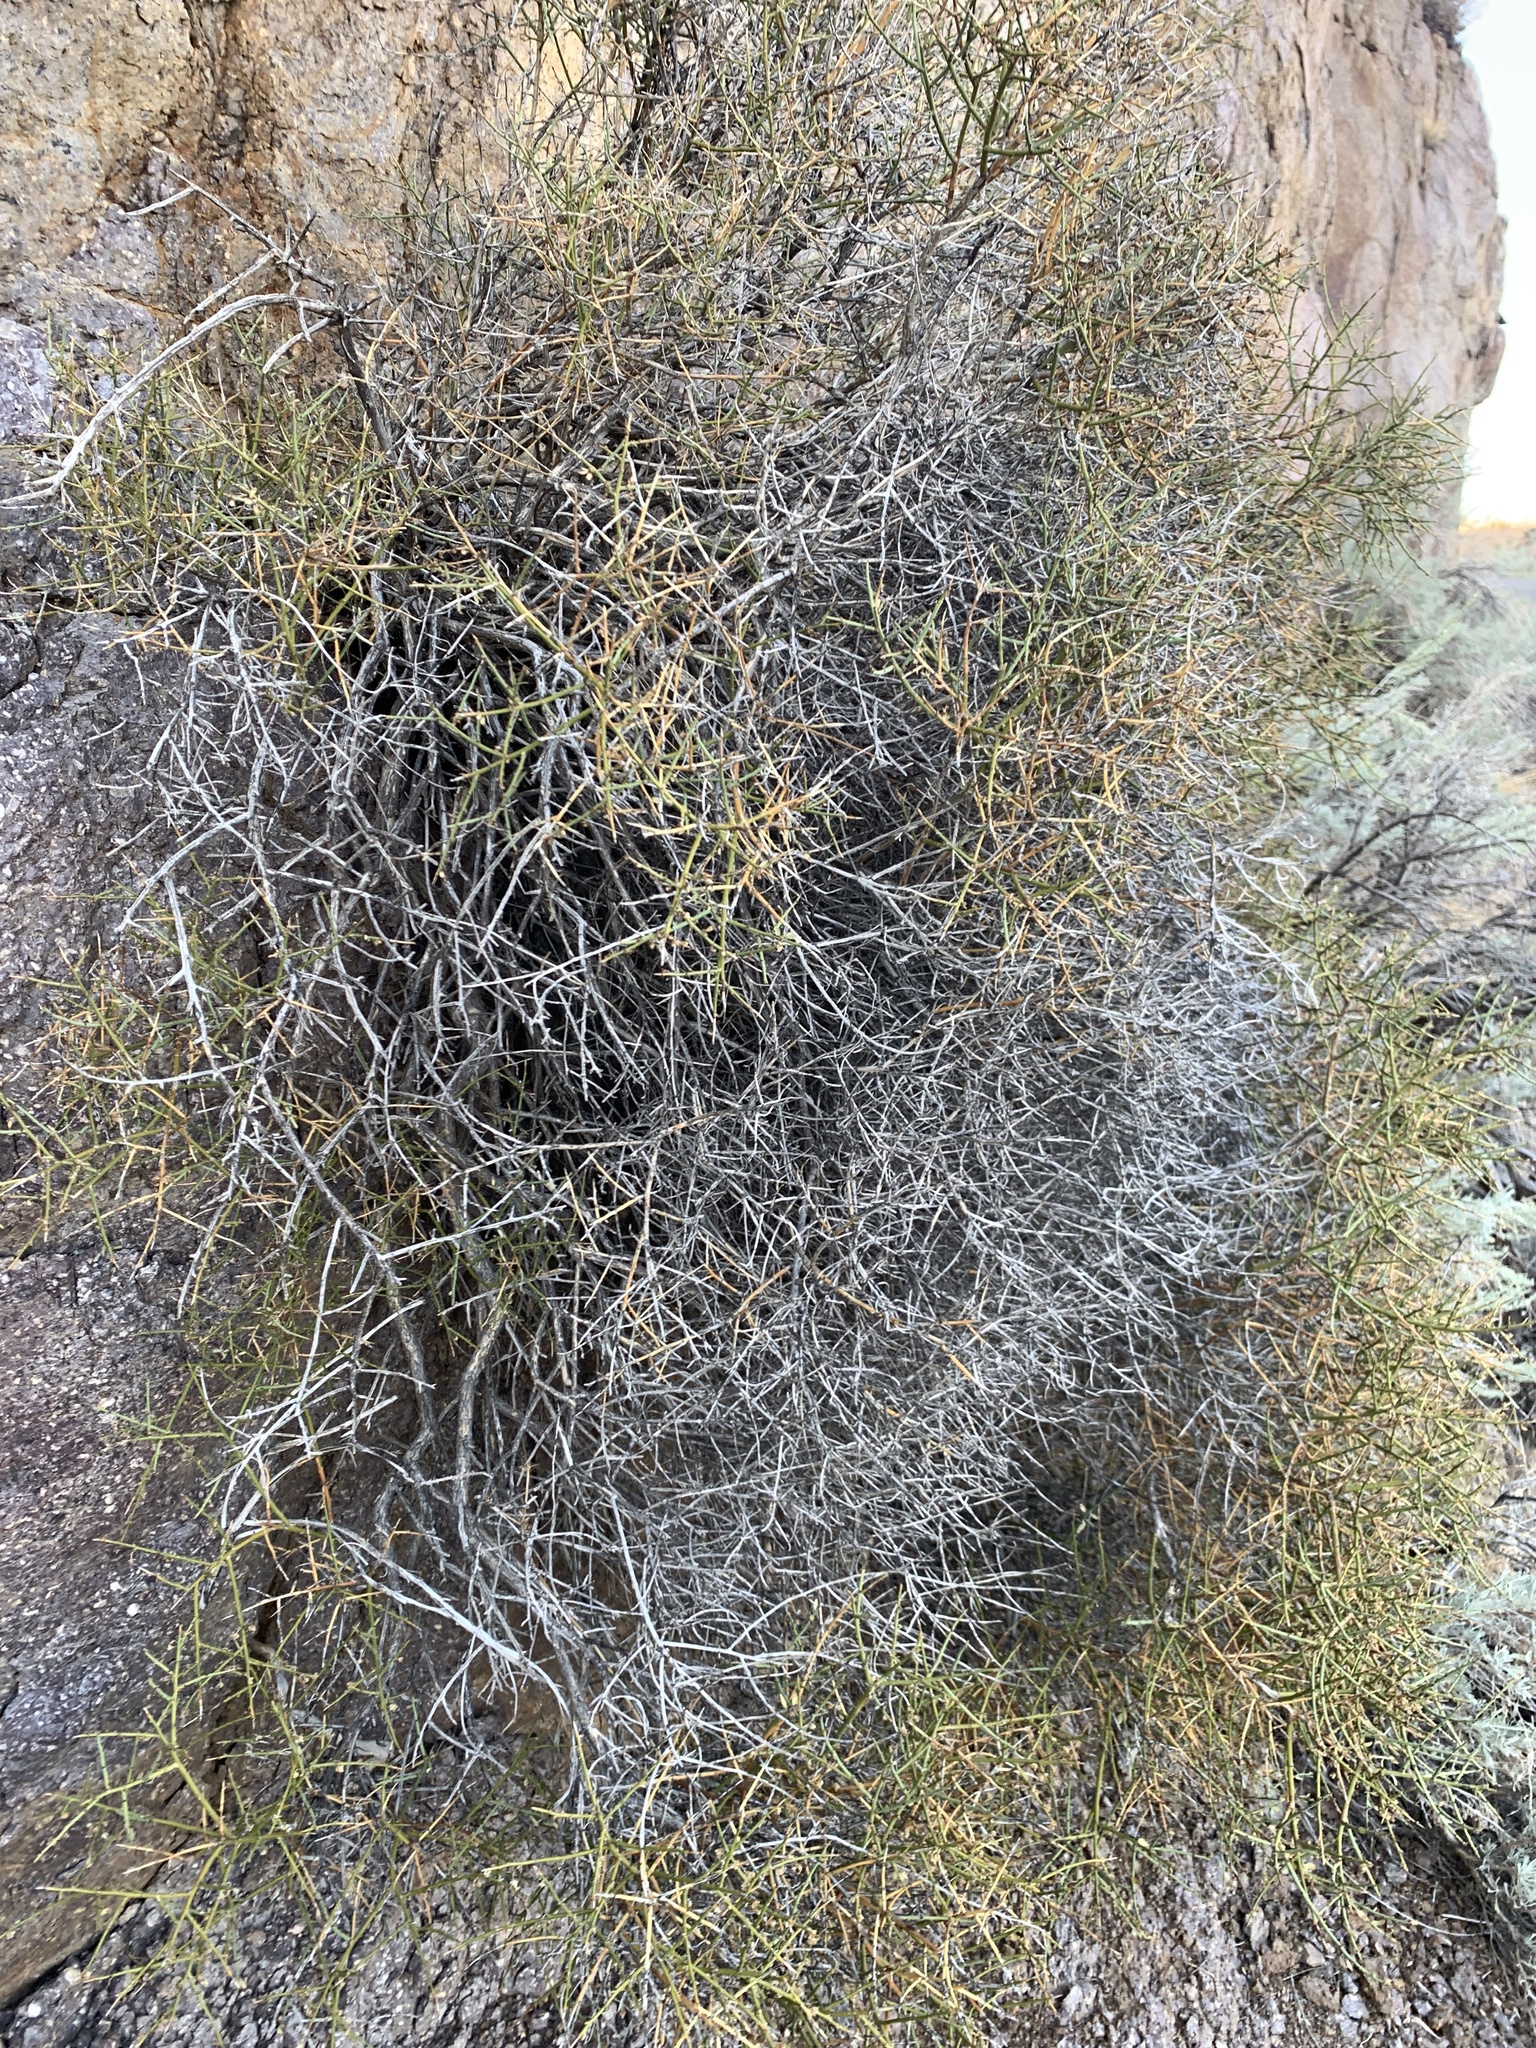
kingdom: Plantae
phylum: Tracheophyta
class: Magnoliopsida
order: Crossosomatales
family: Crossosomataceae
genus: Glossopetalon
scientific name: Glossopetalon spinescens
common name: Spring greasebush
